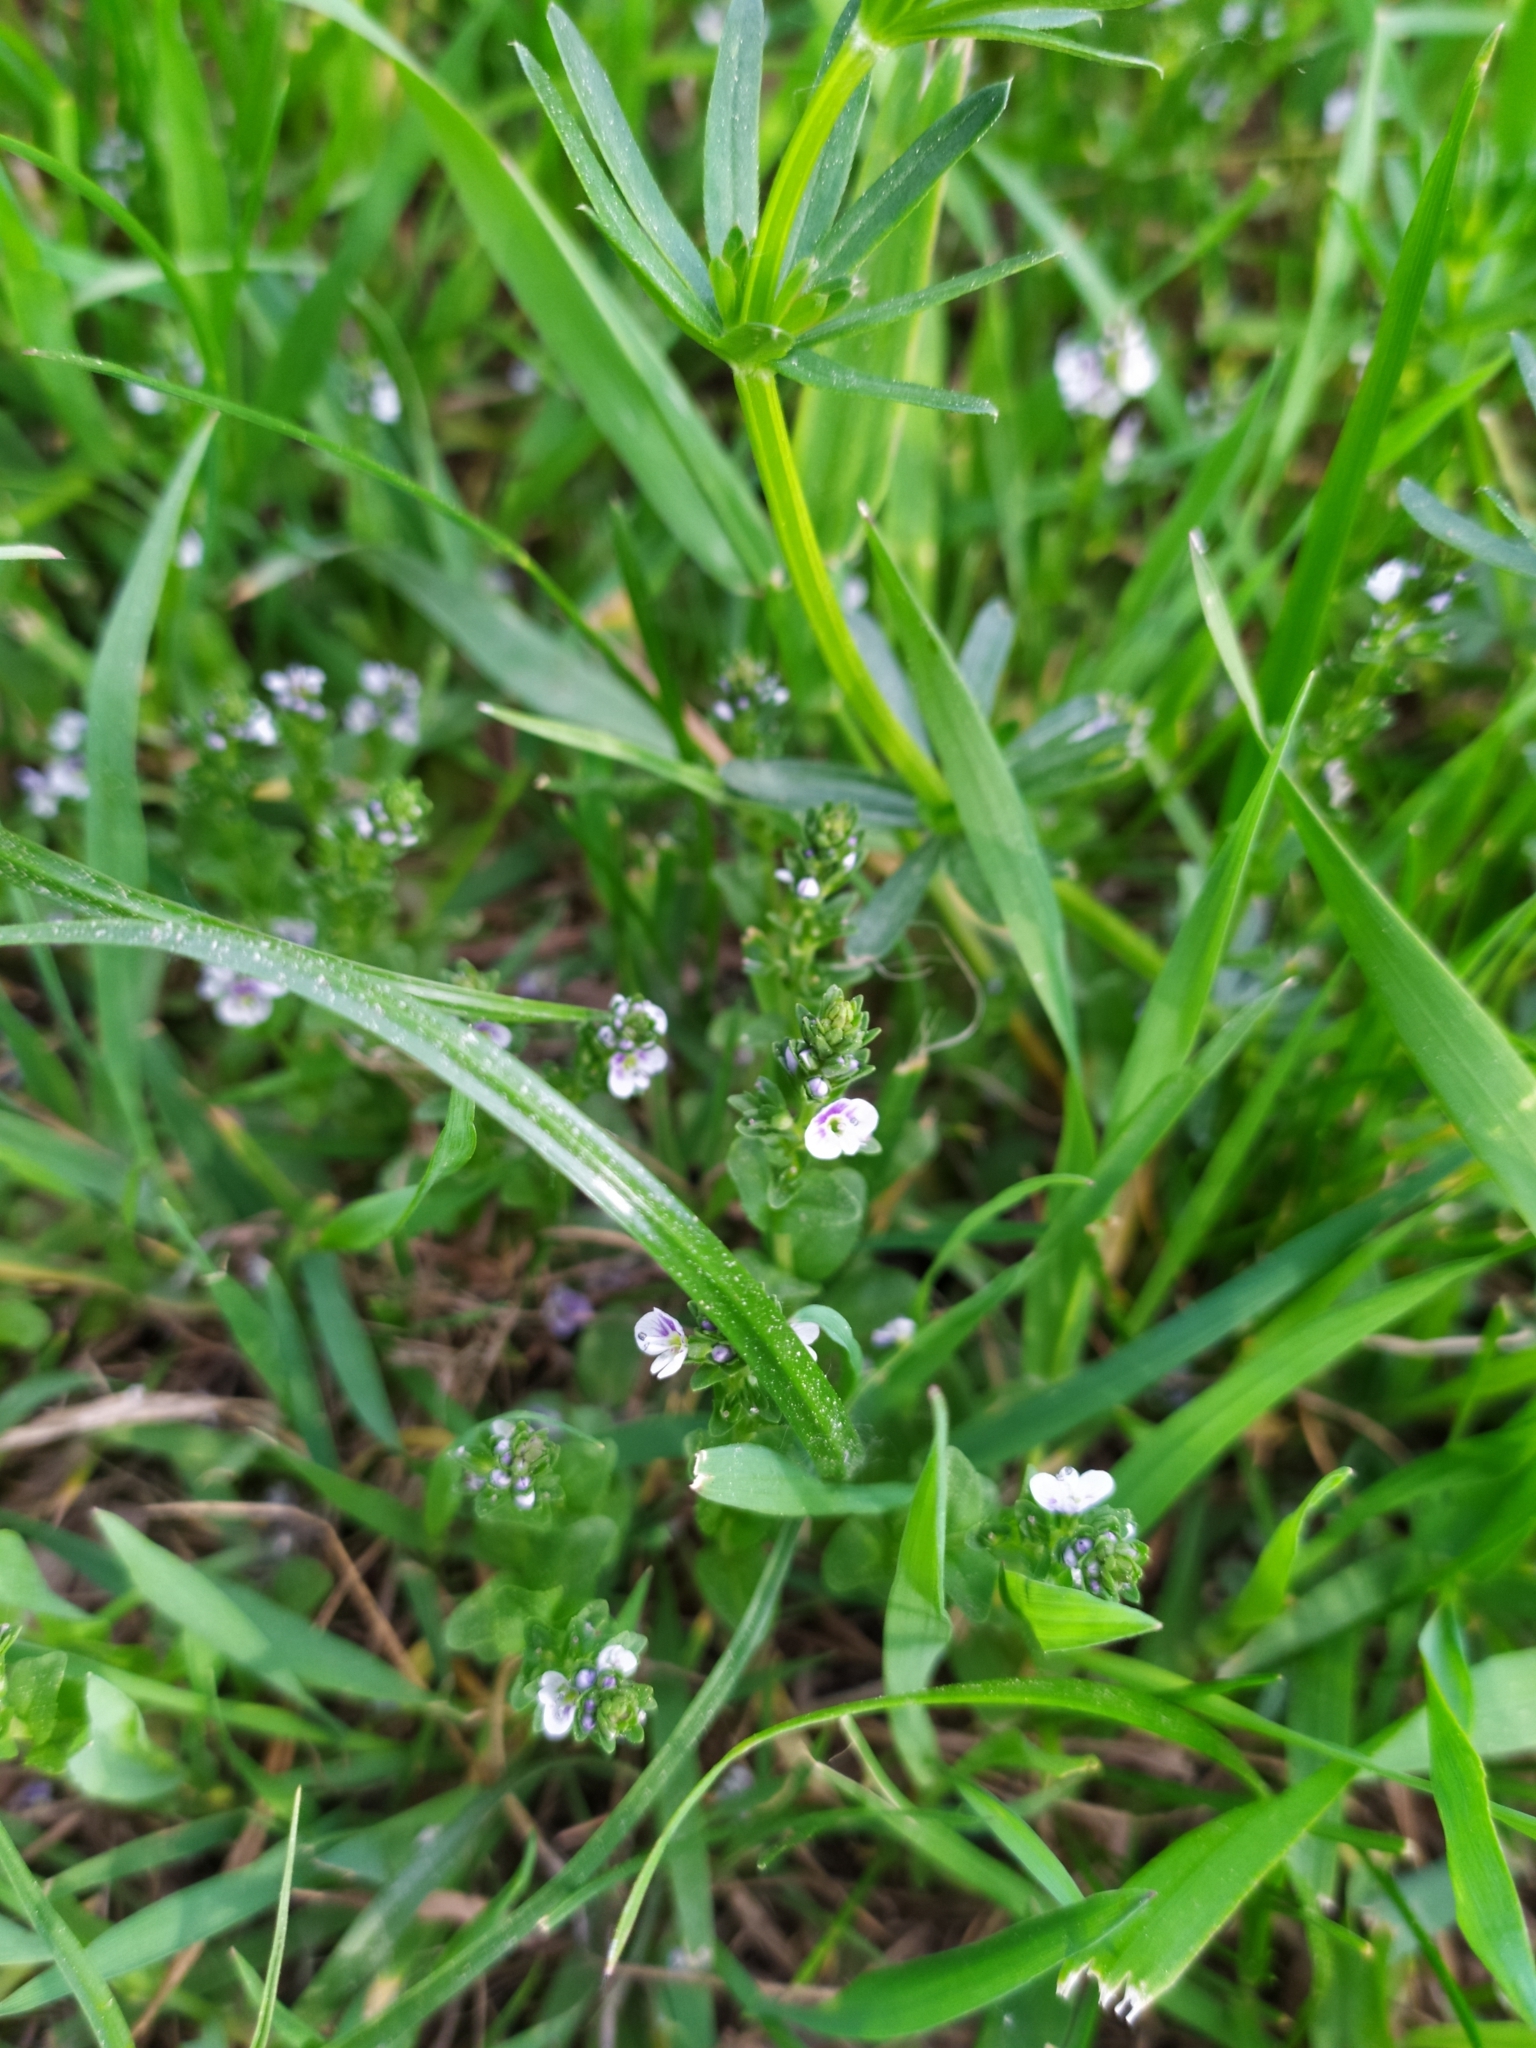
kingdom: Plantae
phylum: Tracheophyta
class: Magnoliopsida
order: Lamiales
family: Plantaginaceae
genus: Veronica
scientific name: Veronica serpyllifolia
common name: Thyme-leaved speedwell
